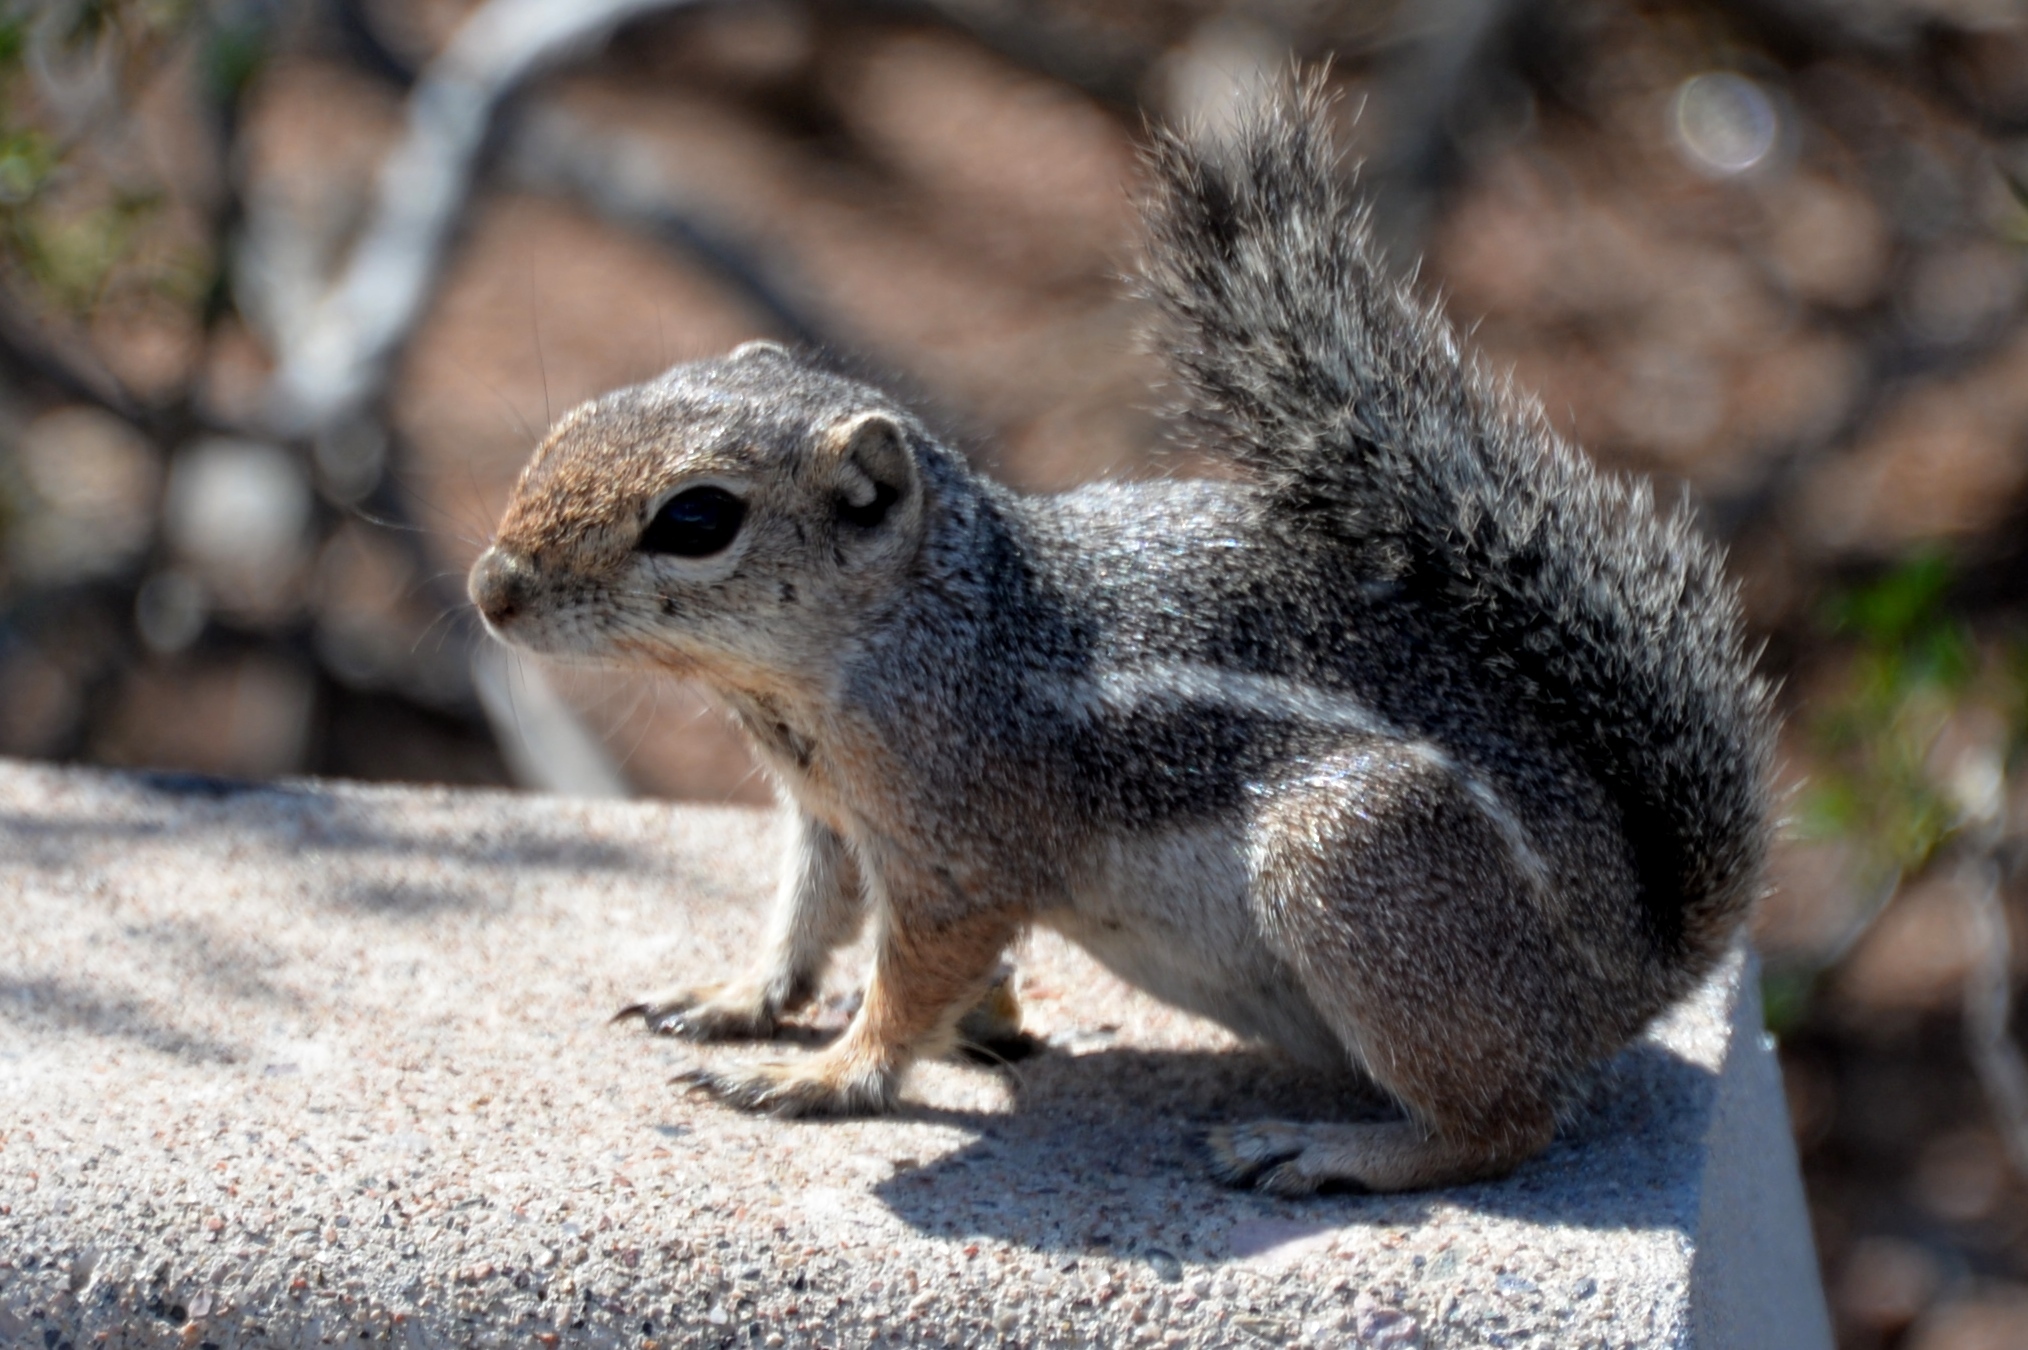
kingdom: Animalia
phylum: Chordata
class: Mammalia
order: Rodentia
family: Sciuridae
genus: Ammospermophilus
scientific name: Ammospermophilus harrisii
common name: Harris's antelope squirrel
